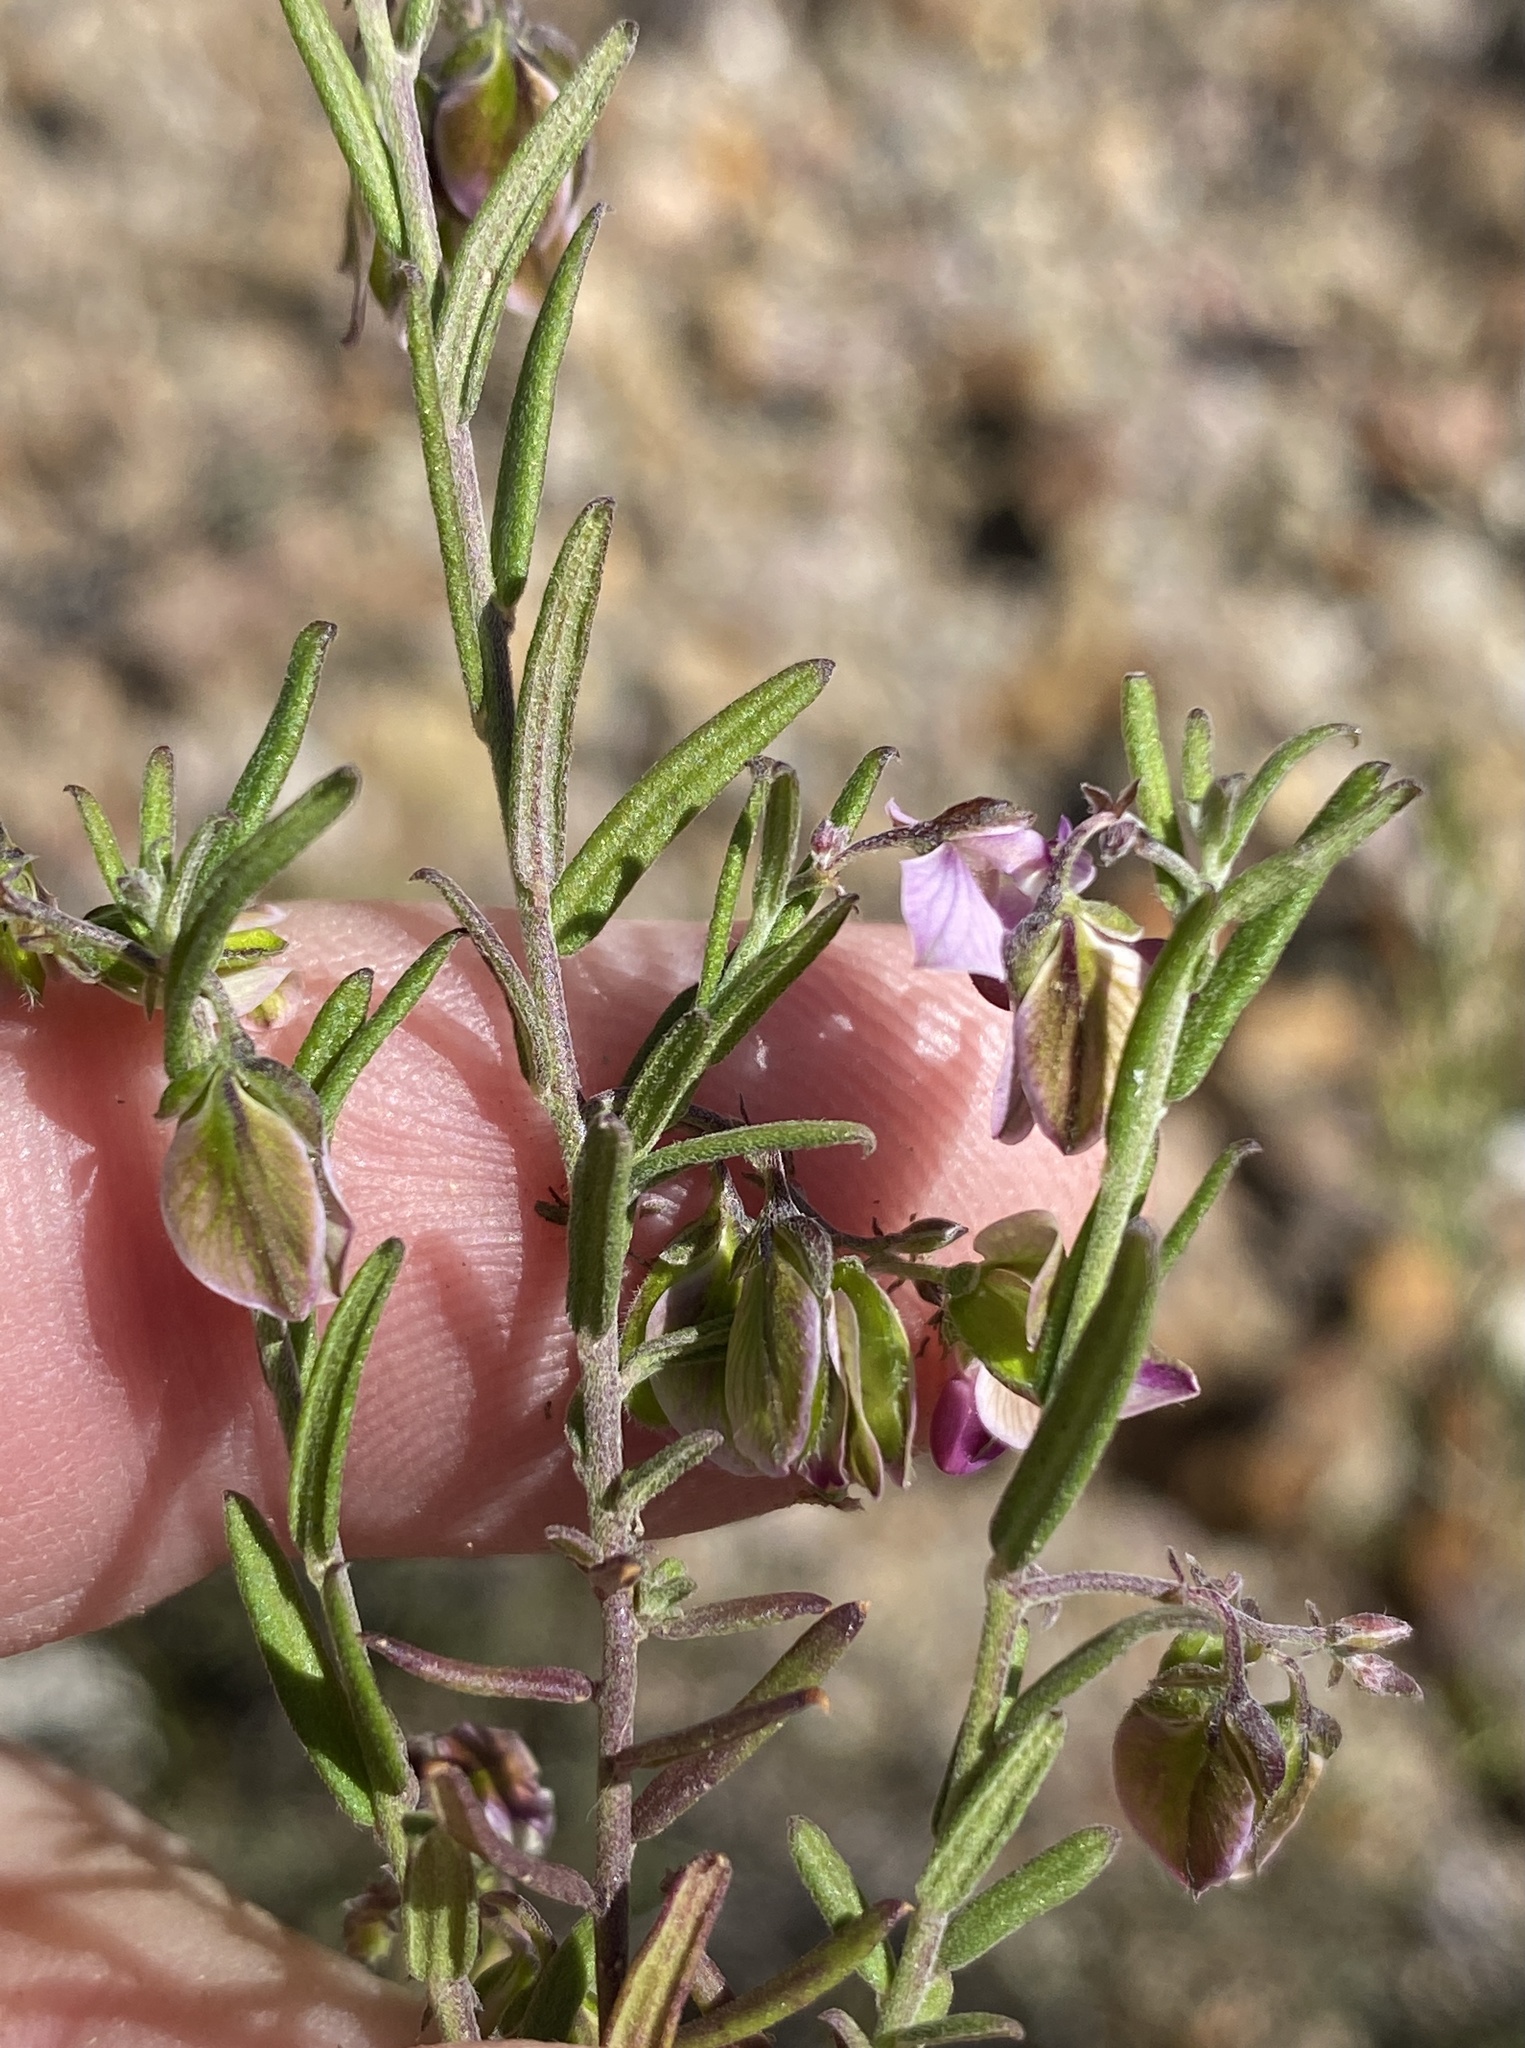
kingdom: Plantae
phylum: Tracheophyta
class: Magnoliopsida
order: Fabales
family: Polygalaceae
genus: Polygala
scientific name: Polygala scabra
